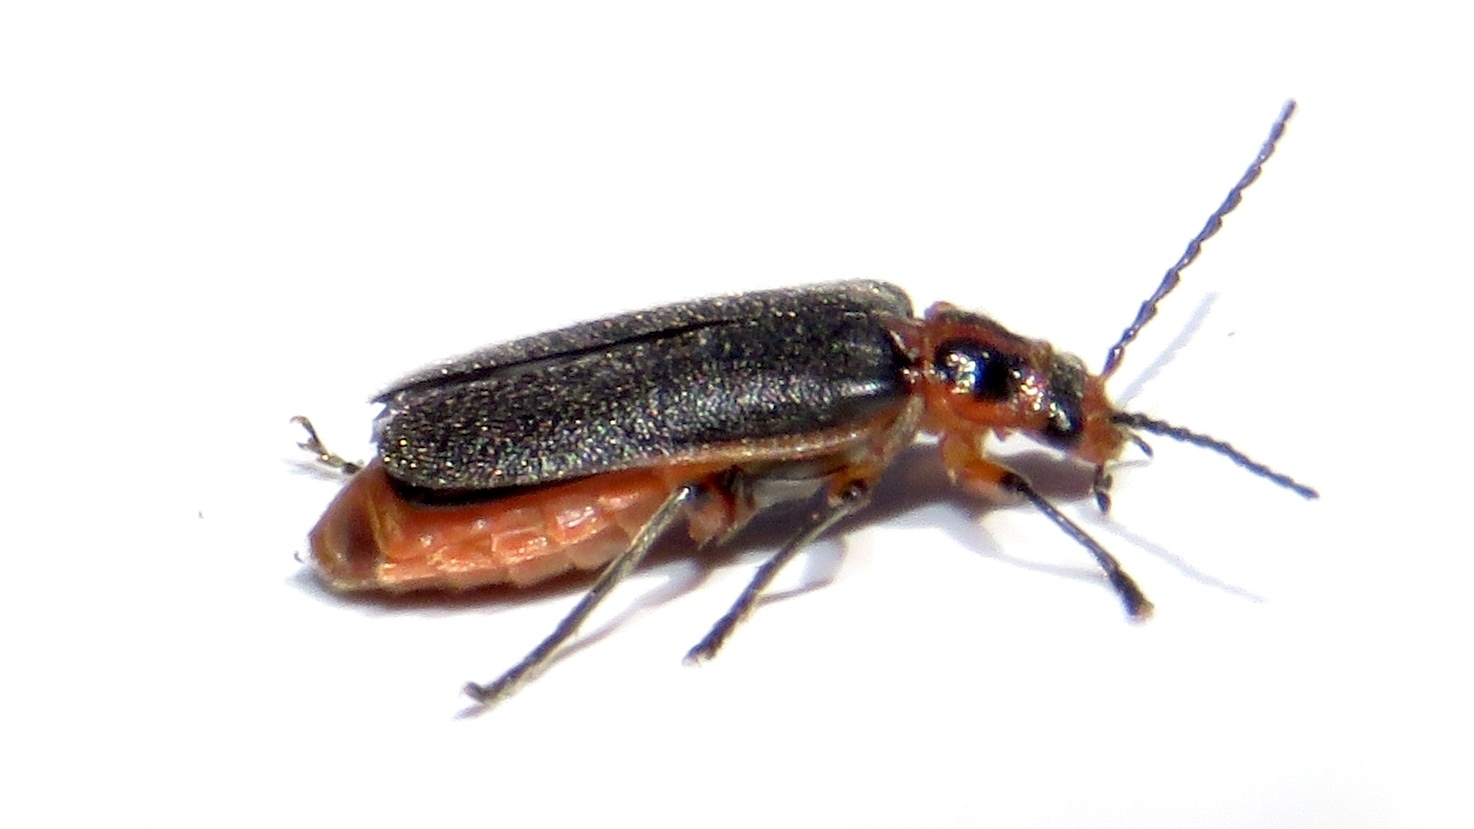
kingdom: Animalia
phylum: Arthropoda
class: Insecta
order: Coleoptera
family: Cantharidae
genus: Atalantycha
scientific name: Atalantycha bilineata
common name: Two-lined leatherwing
